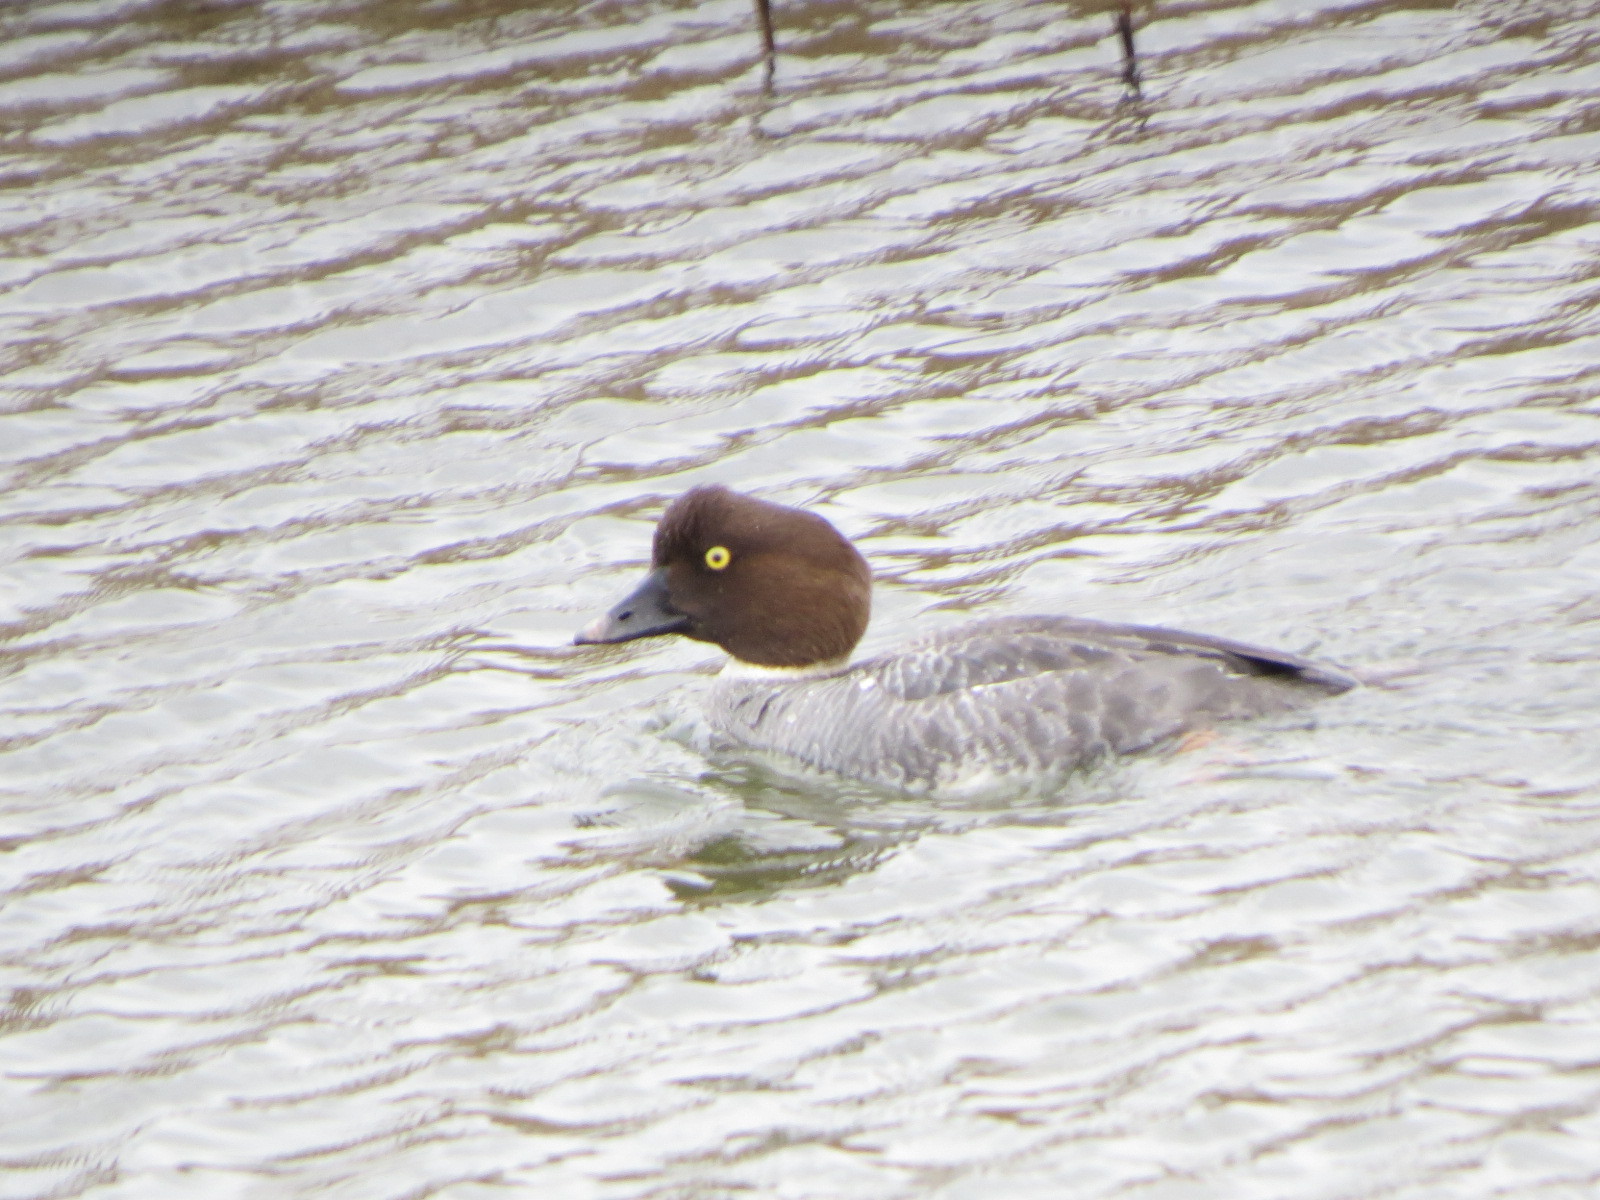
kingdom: Animalia
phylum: Chordata
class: Aves
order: Anseriformes
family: Anatidae
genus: Bucephala
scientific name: Bucephala clangula
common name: Common goldeneye
